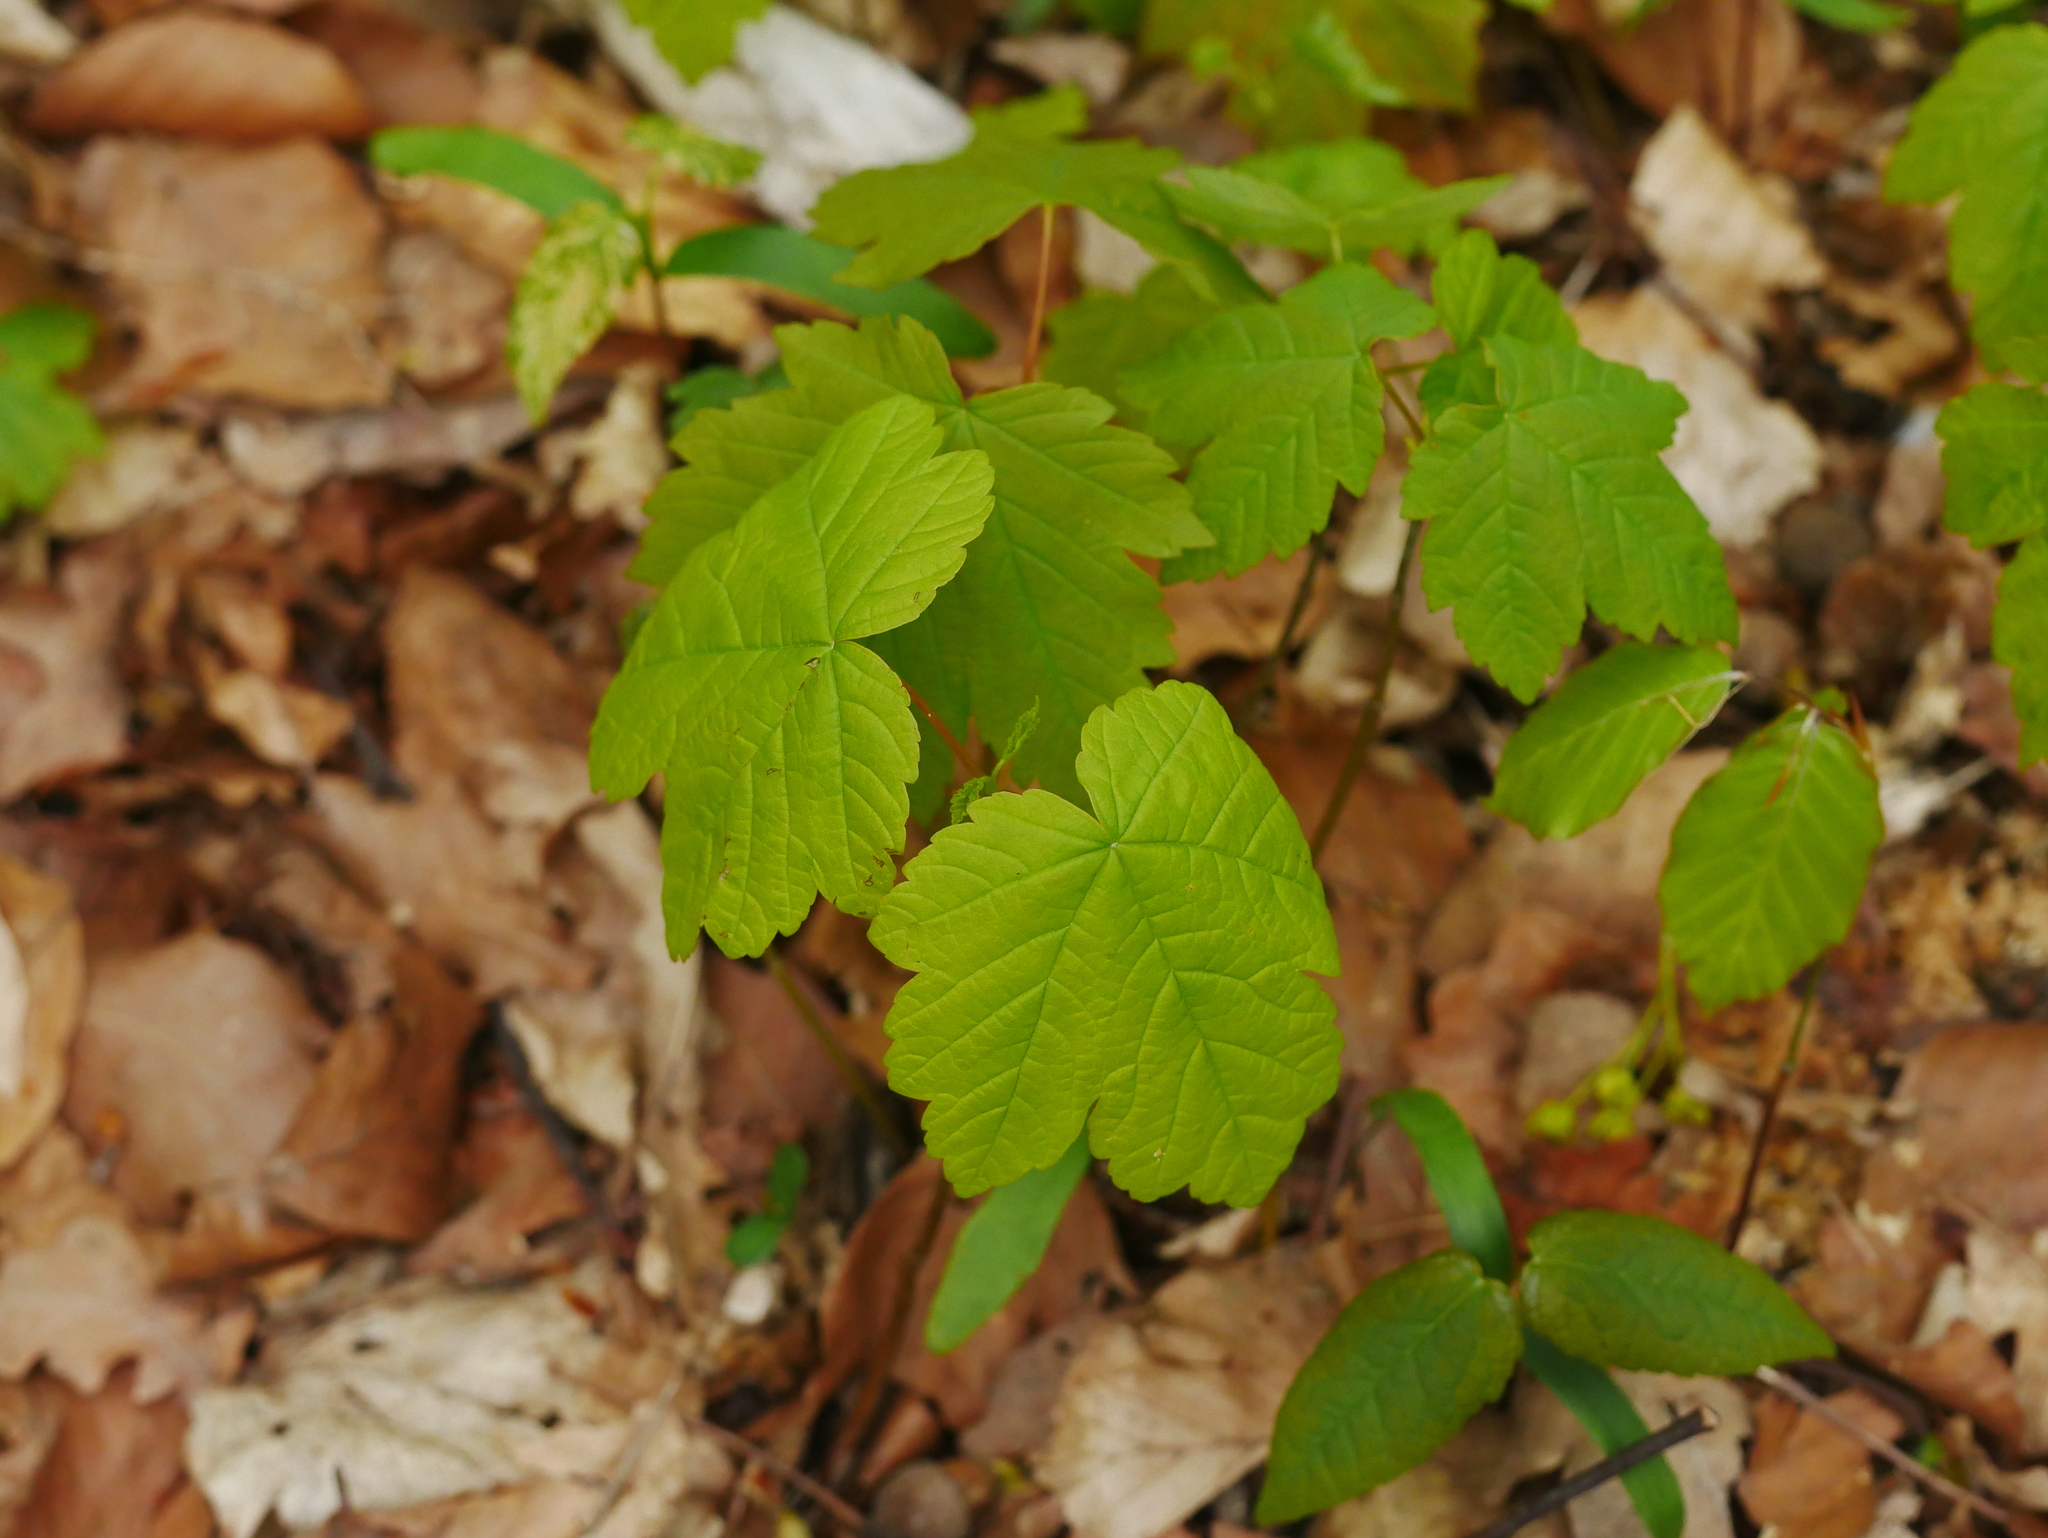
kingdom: Plantae
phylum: Tracheophyta
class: Magnoliopsida
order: Sapindales
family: Sapindaceae
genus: Acer
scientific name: Acer pseudoplatanus
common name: Sycamore
